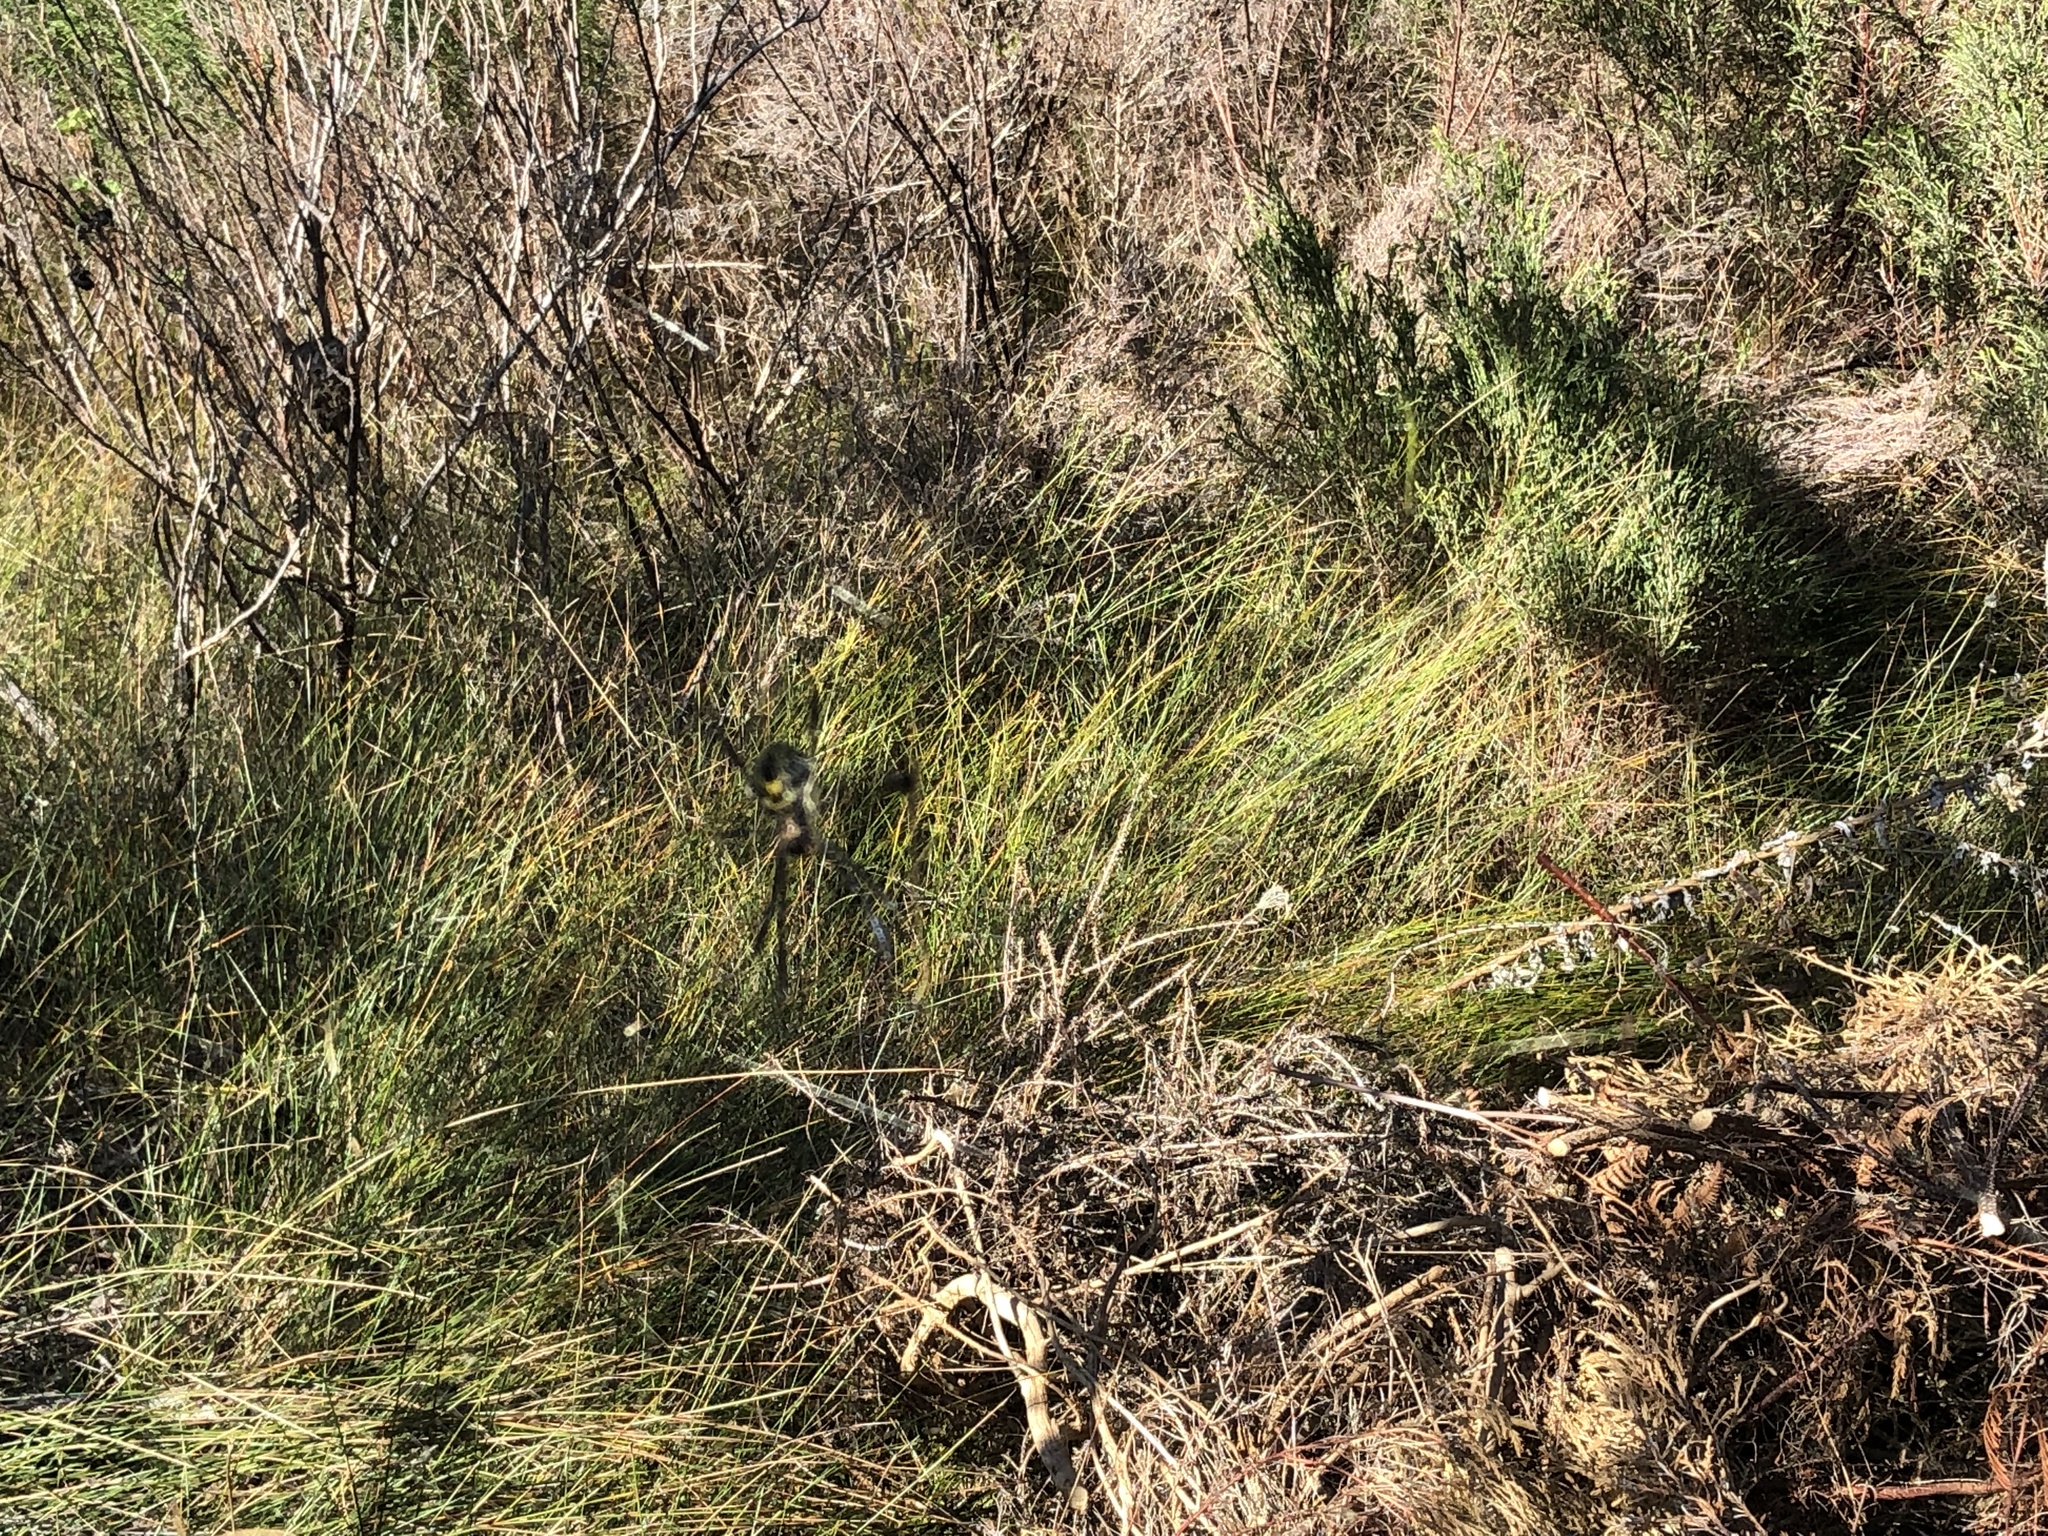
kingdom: Animalia
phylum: Arthropoda
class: Arachnida
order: Araneae
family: Araneidae
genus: Trichonephila
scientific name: Trichonephila fenestrata
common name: Hairy golden orb weaver
